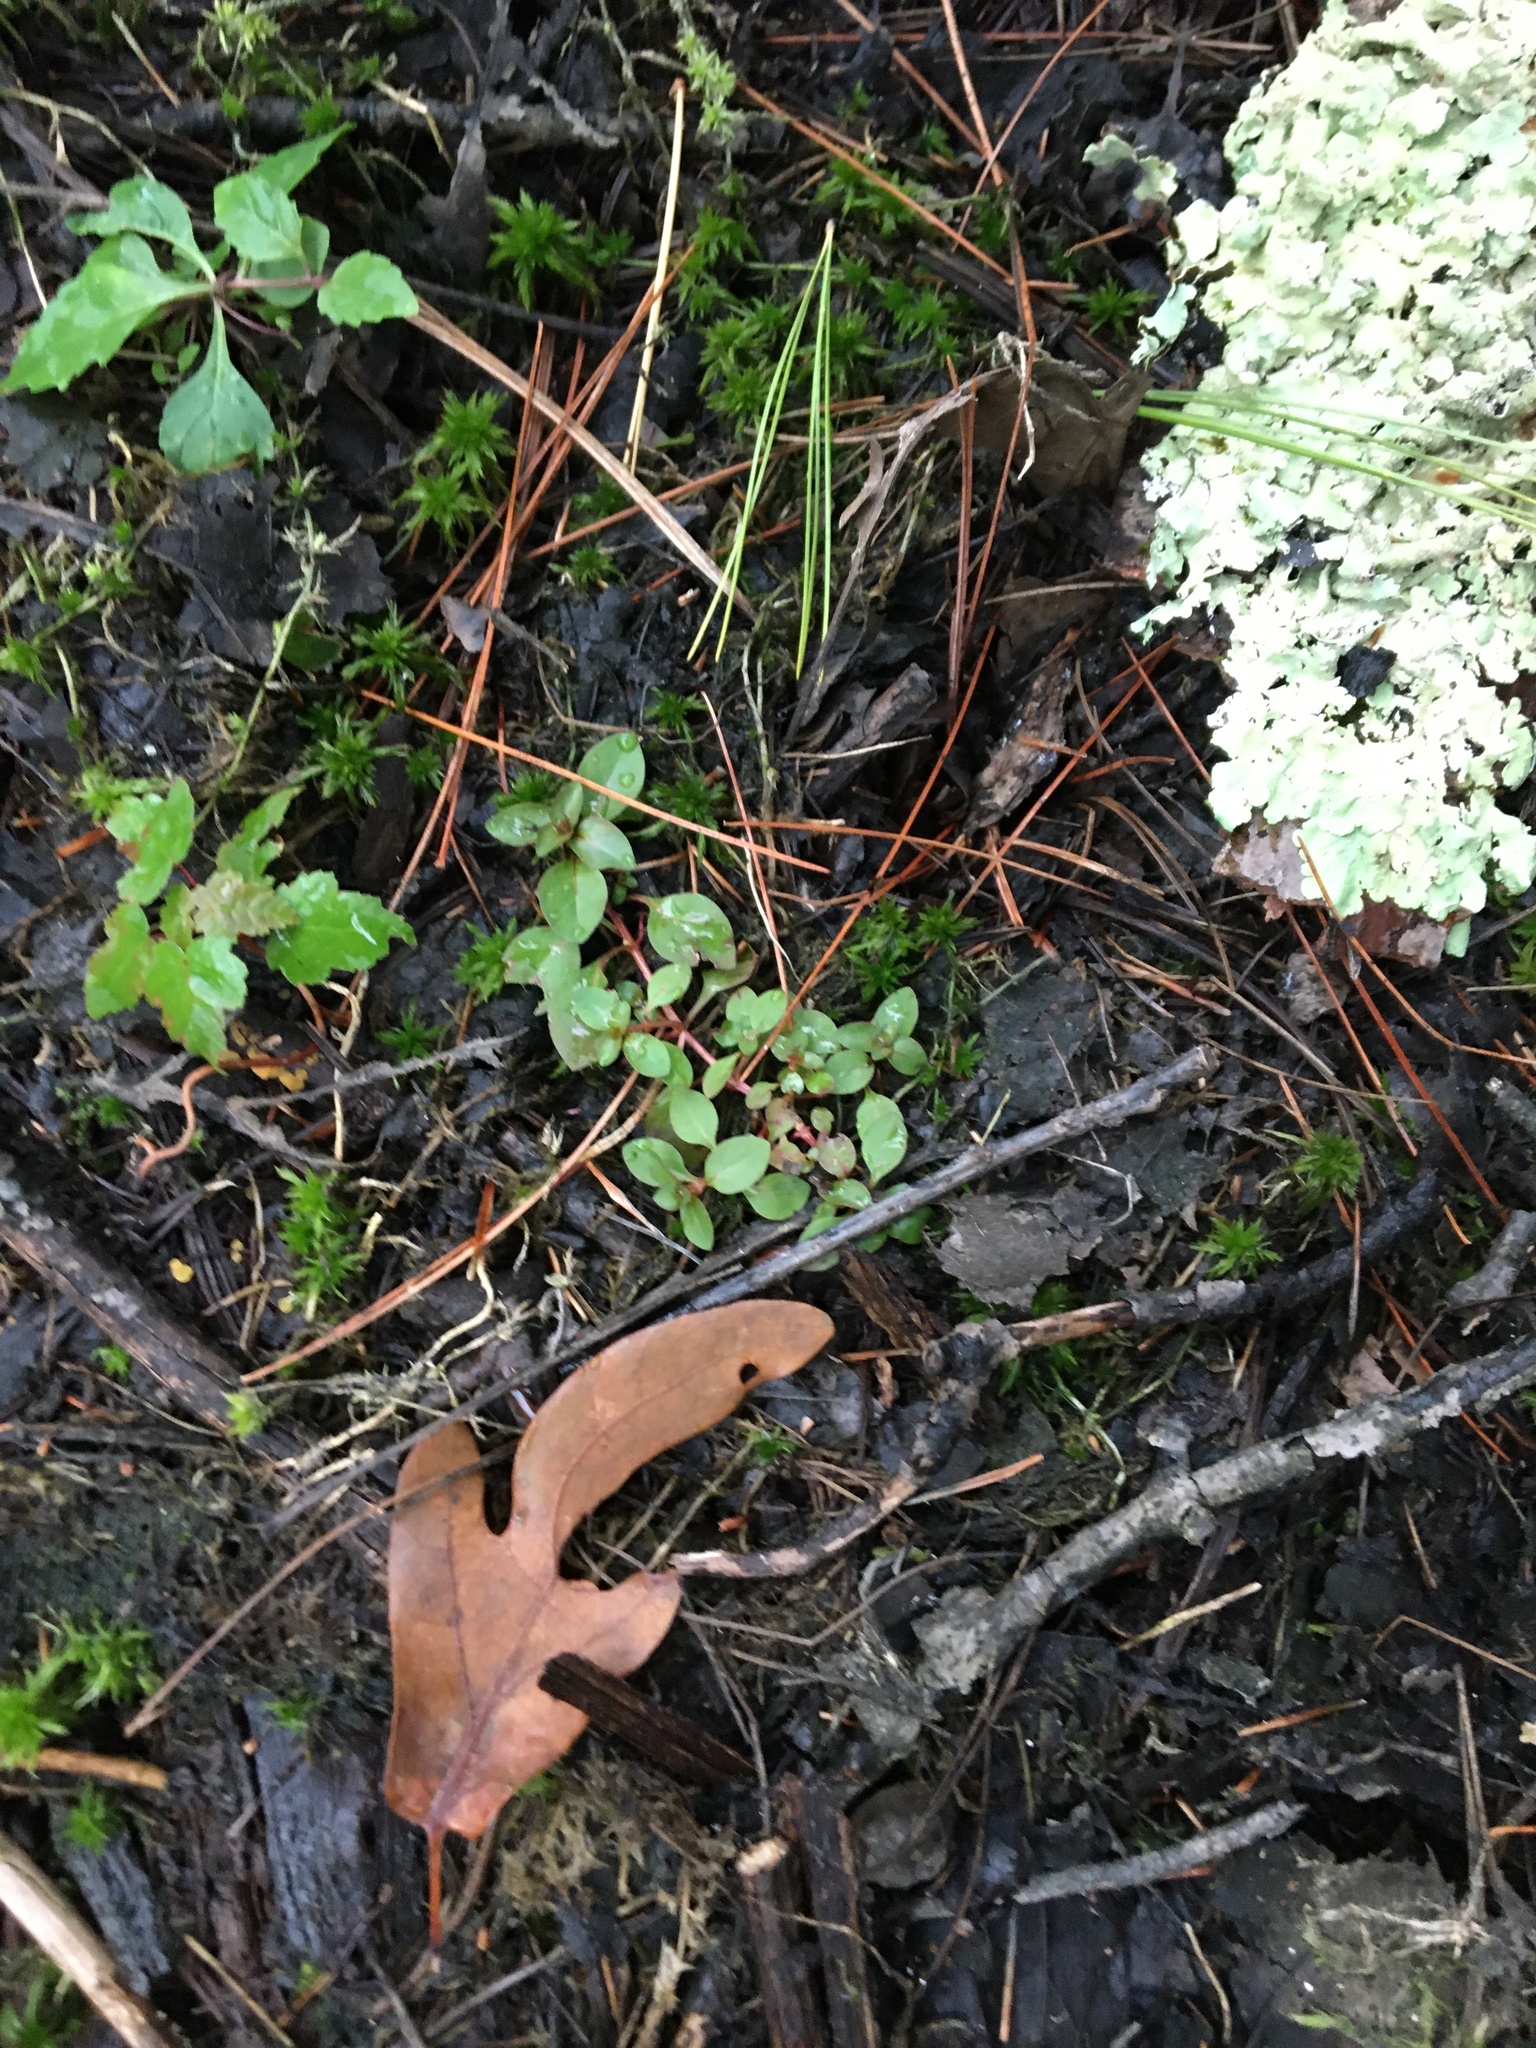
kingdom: Plantae
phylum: Tracheophyta
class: Magnoliopsida
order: Myrtales
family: Onagraceae
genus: Ludwigia
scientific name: Ludwigia palustris
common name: Hampshire-purslane
